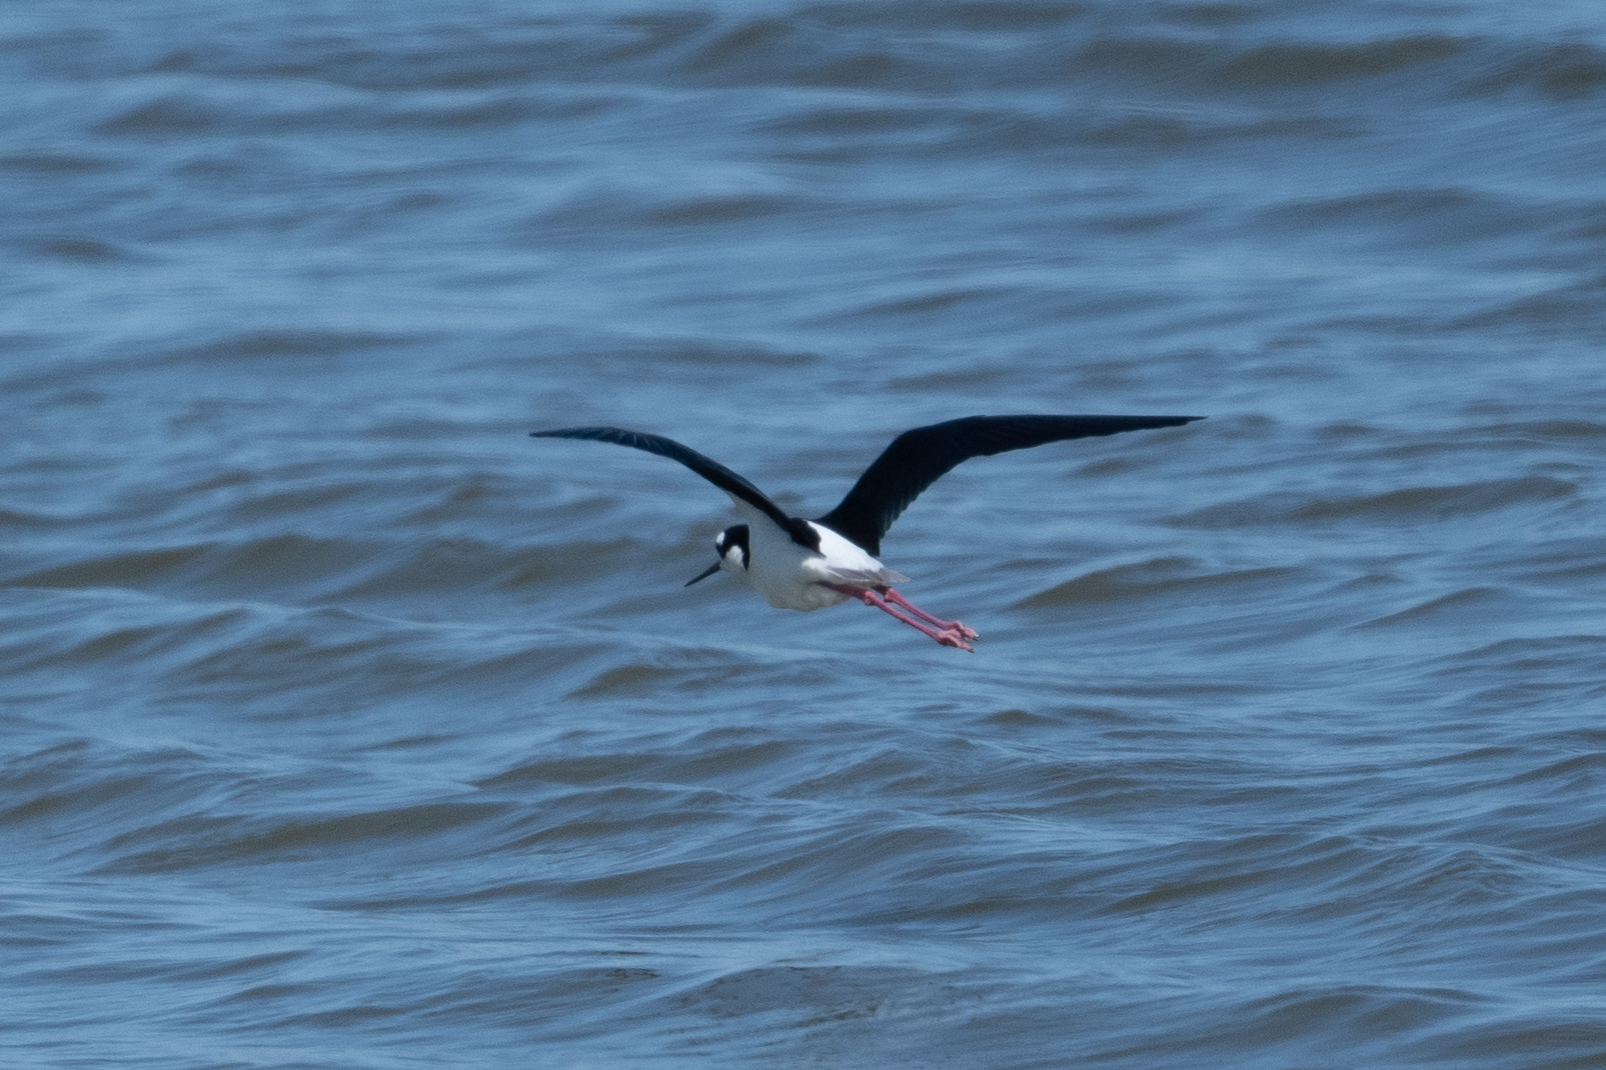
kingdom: Animalia
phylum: Chordata
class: Aves
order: Charadriiformes
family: Recurvirostridae
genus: Himantopus
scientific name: Himantopus mexicanus
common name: Black-necked stilt
